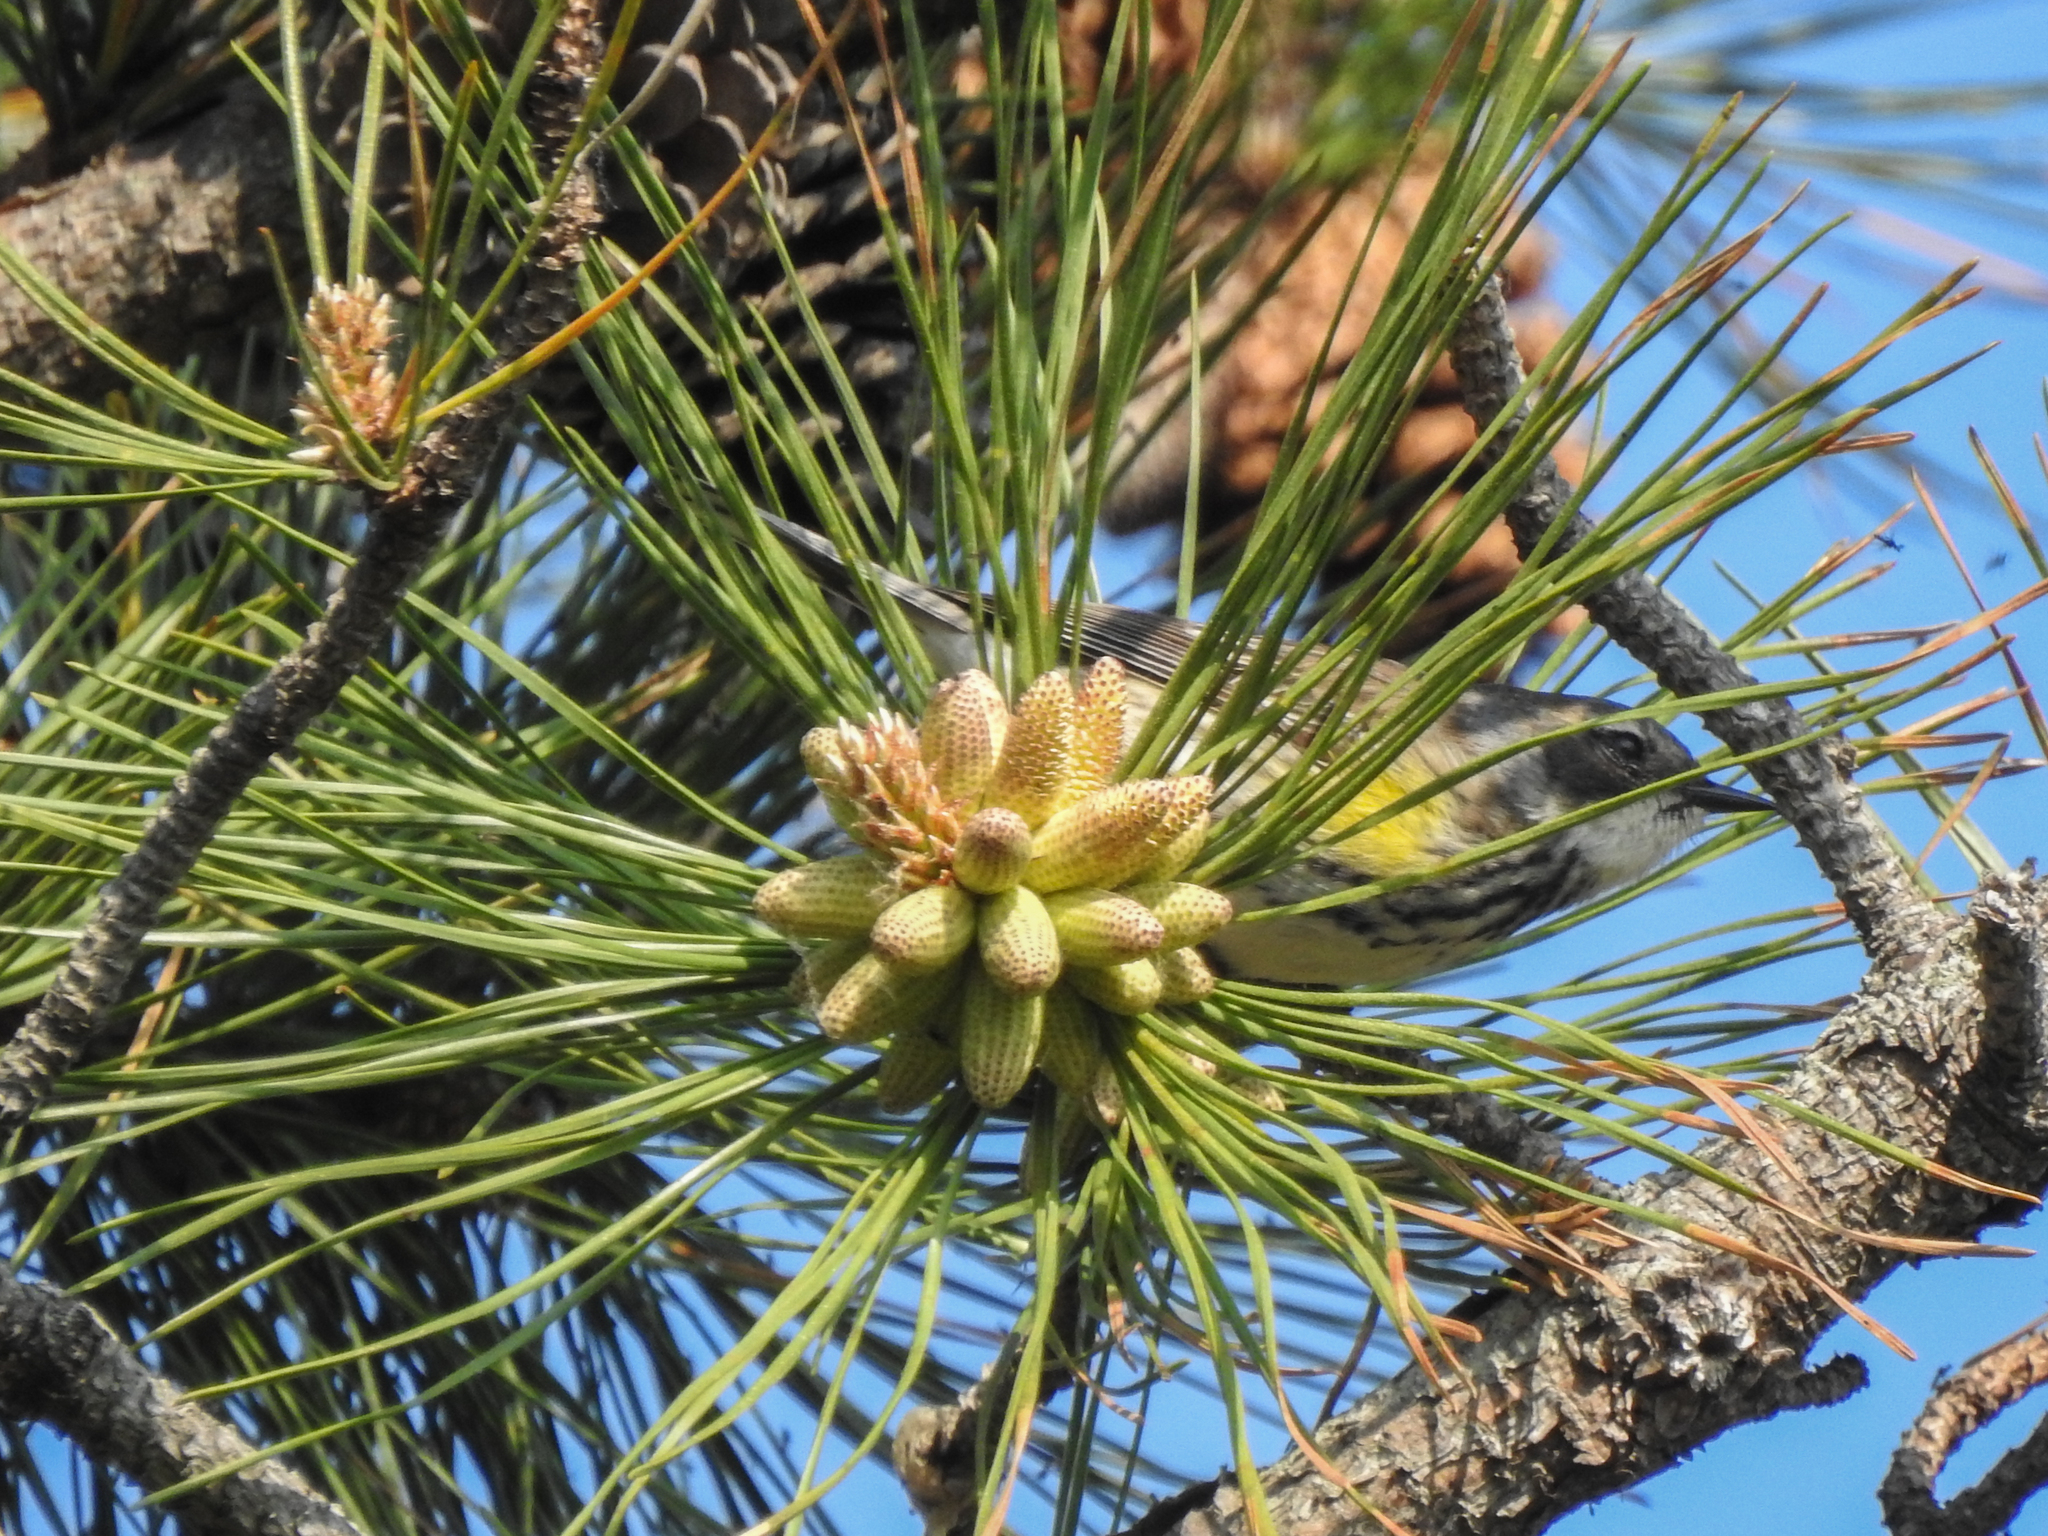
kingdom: Animalia
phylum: Chordata
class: Aves
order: Passeriformes
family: Parulidae
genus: Setophaga
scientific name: Setophaga coronata
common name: Myrtle warbler
